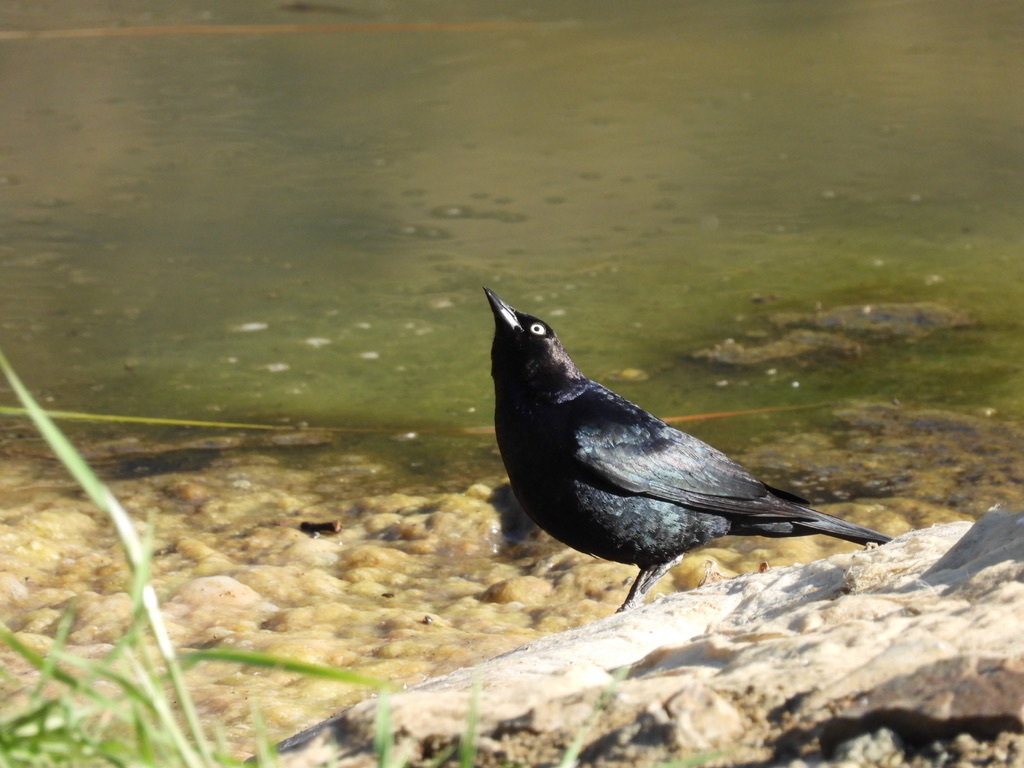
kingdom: Animalia
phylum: Chordata
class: Aves
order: Passeriformes
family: Icteridae
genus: Euphagus
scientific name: Euphagus cyanocephalus
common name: Brewer's blackbird
